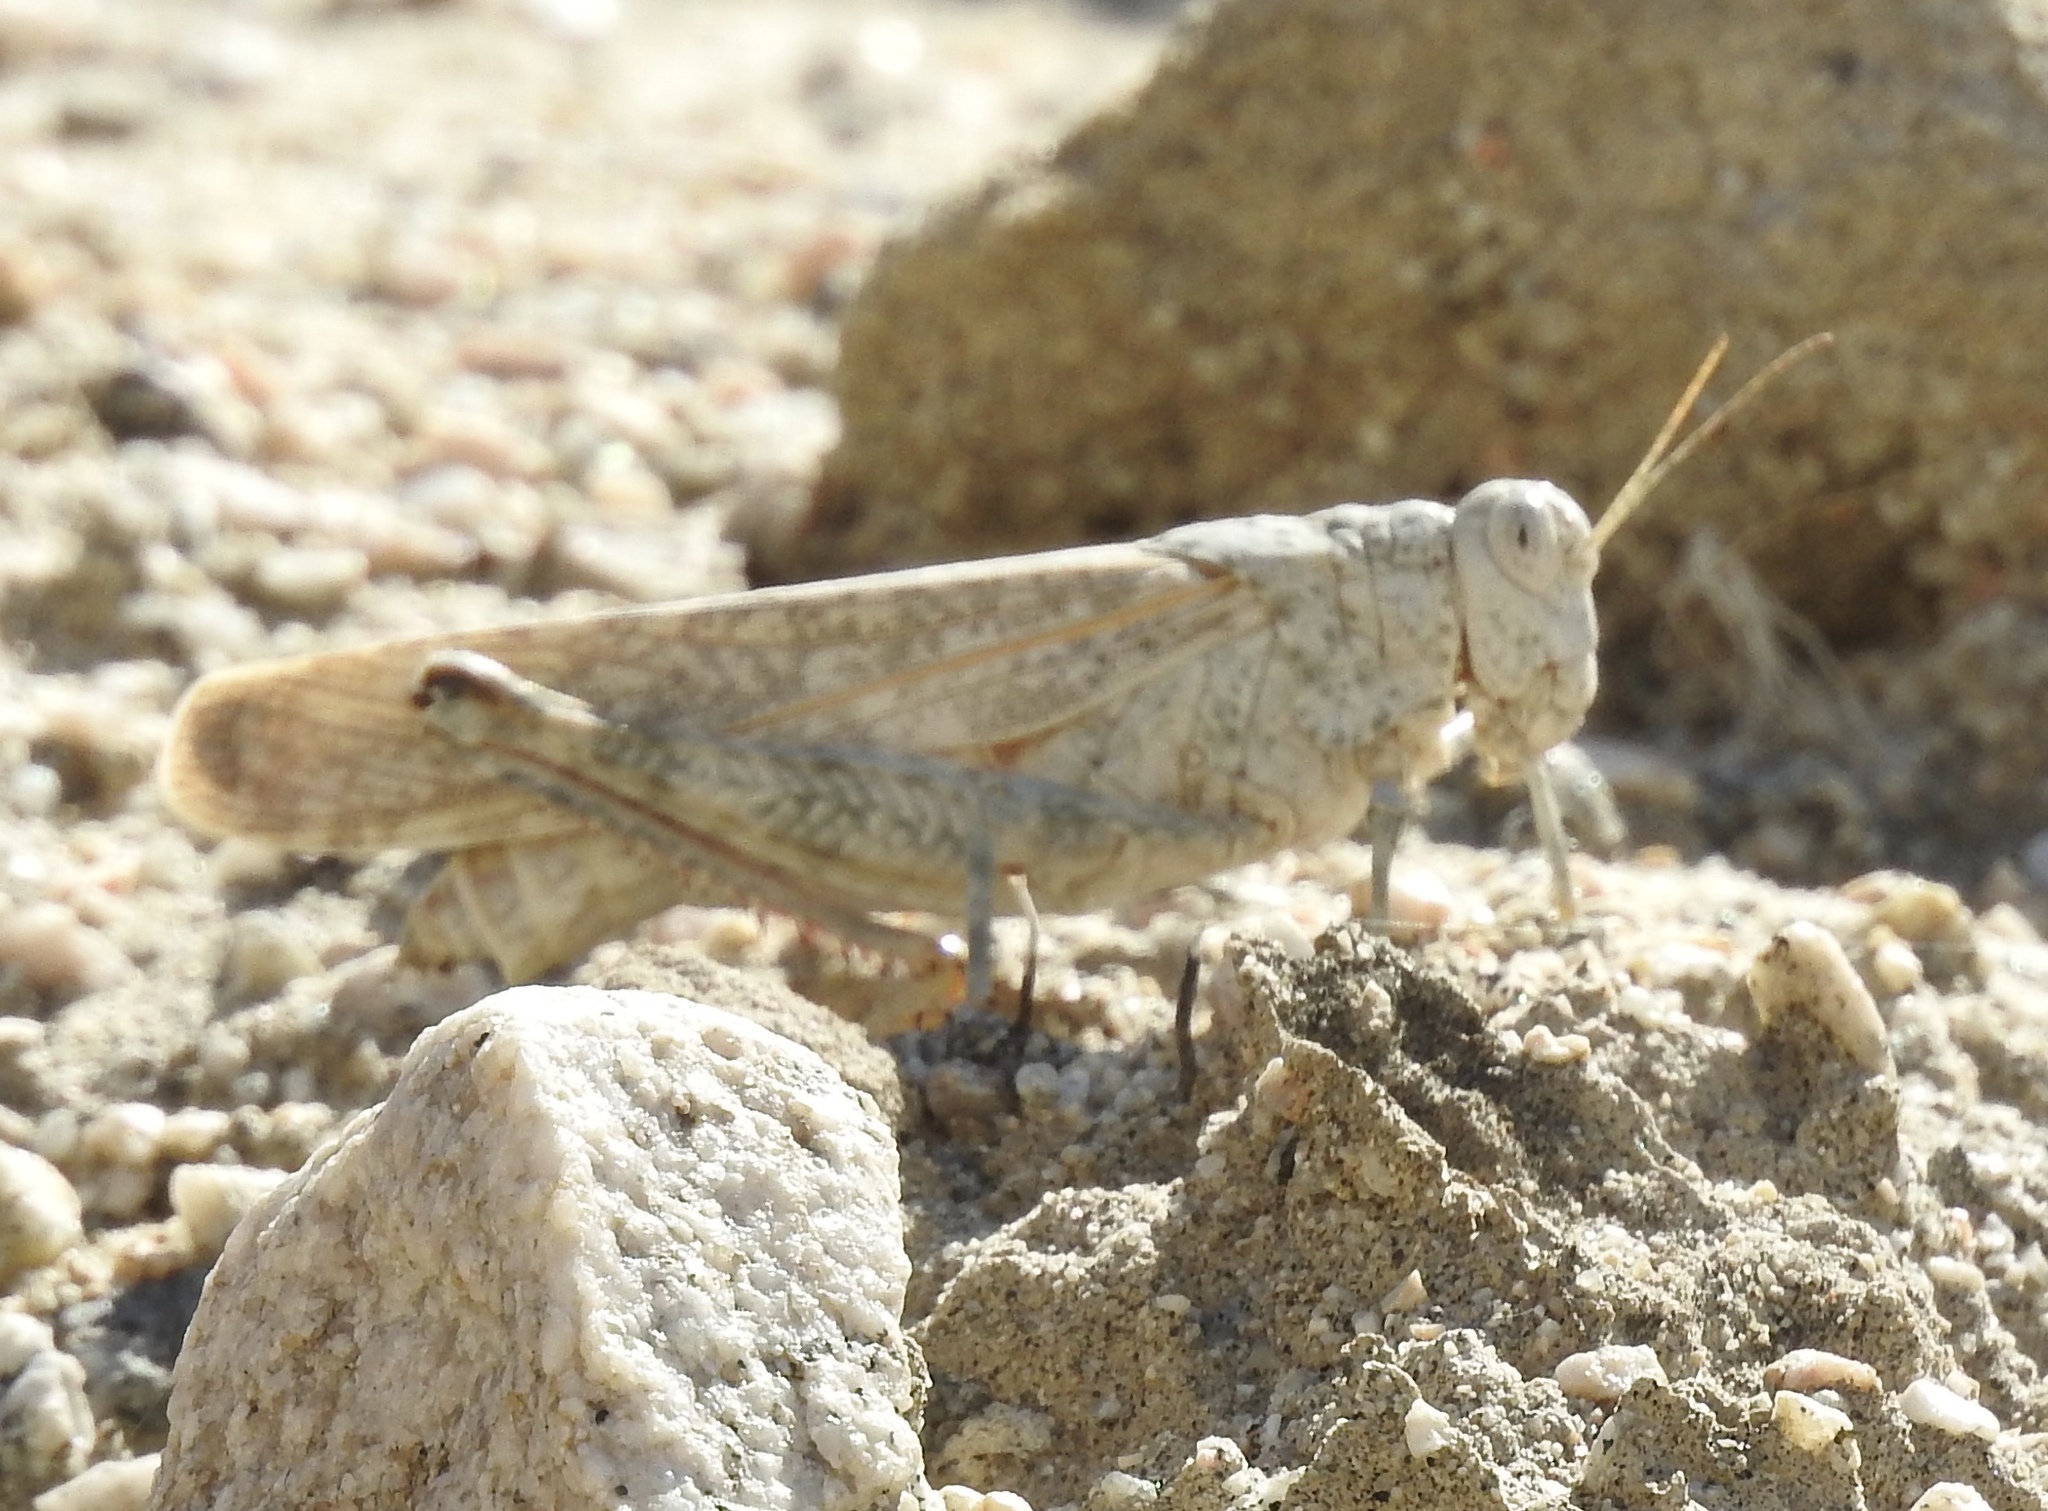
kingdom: Animalia
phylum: Arthropoda
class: Insecta
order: Orthoptera
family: Romaleidae
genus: Tytthotyle
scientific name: Tytthotyle maculata
